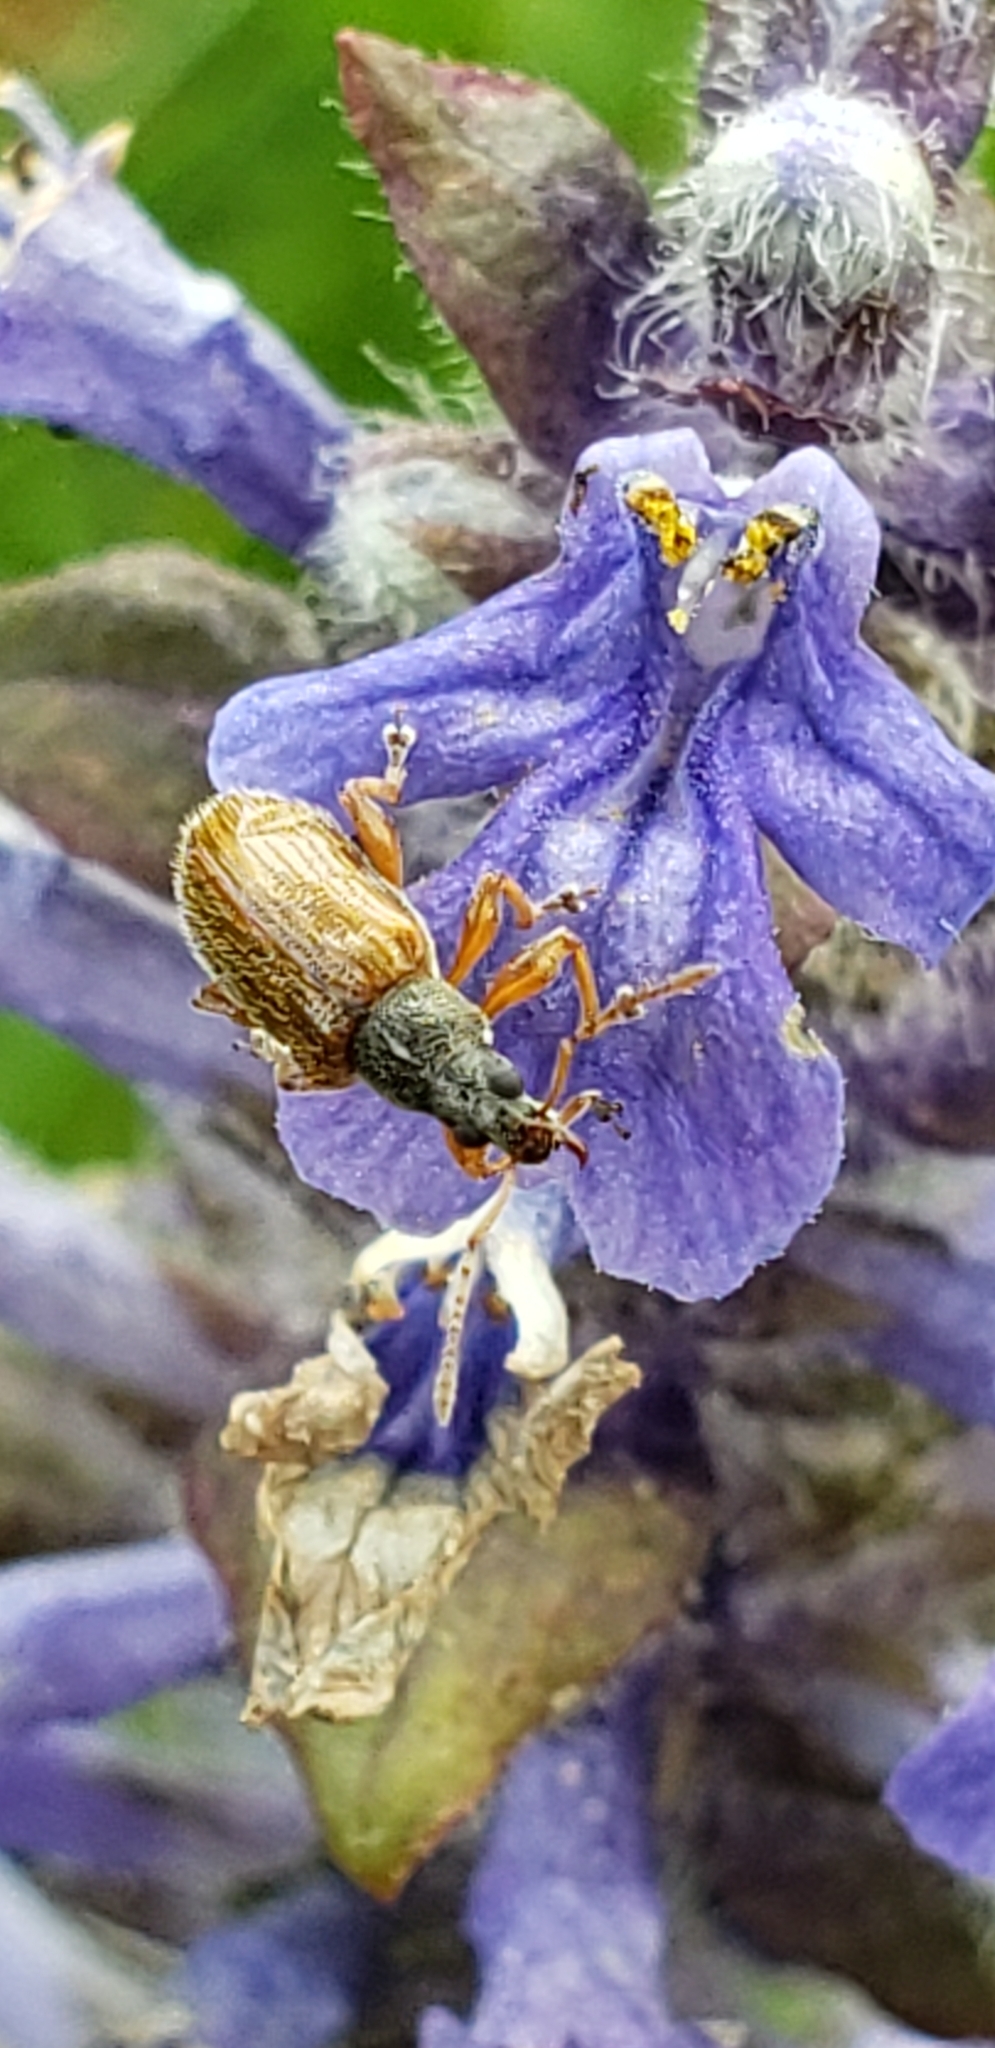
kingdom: Animalia
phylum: Arthropoda
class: Insecta
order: Coleoptera
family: Curculionidae
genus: Phyllobius
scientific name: Phyllobius oblongus
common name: Brown leaf weevil
